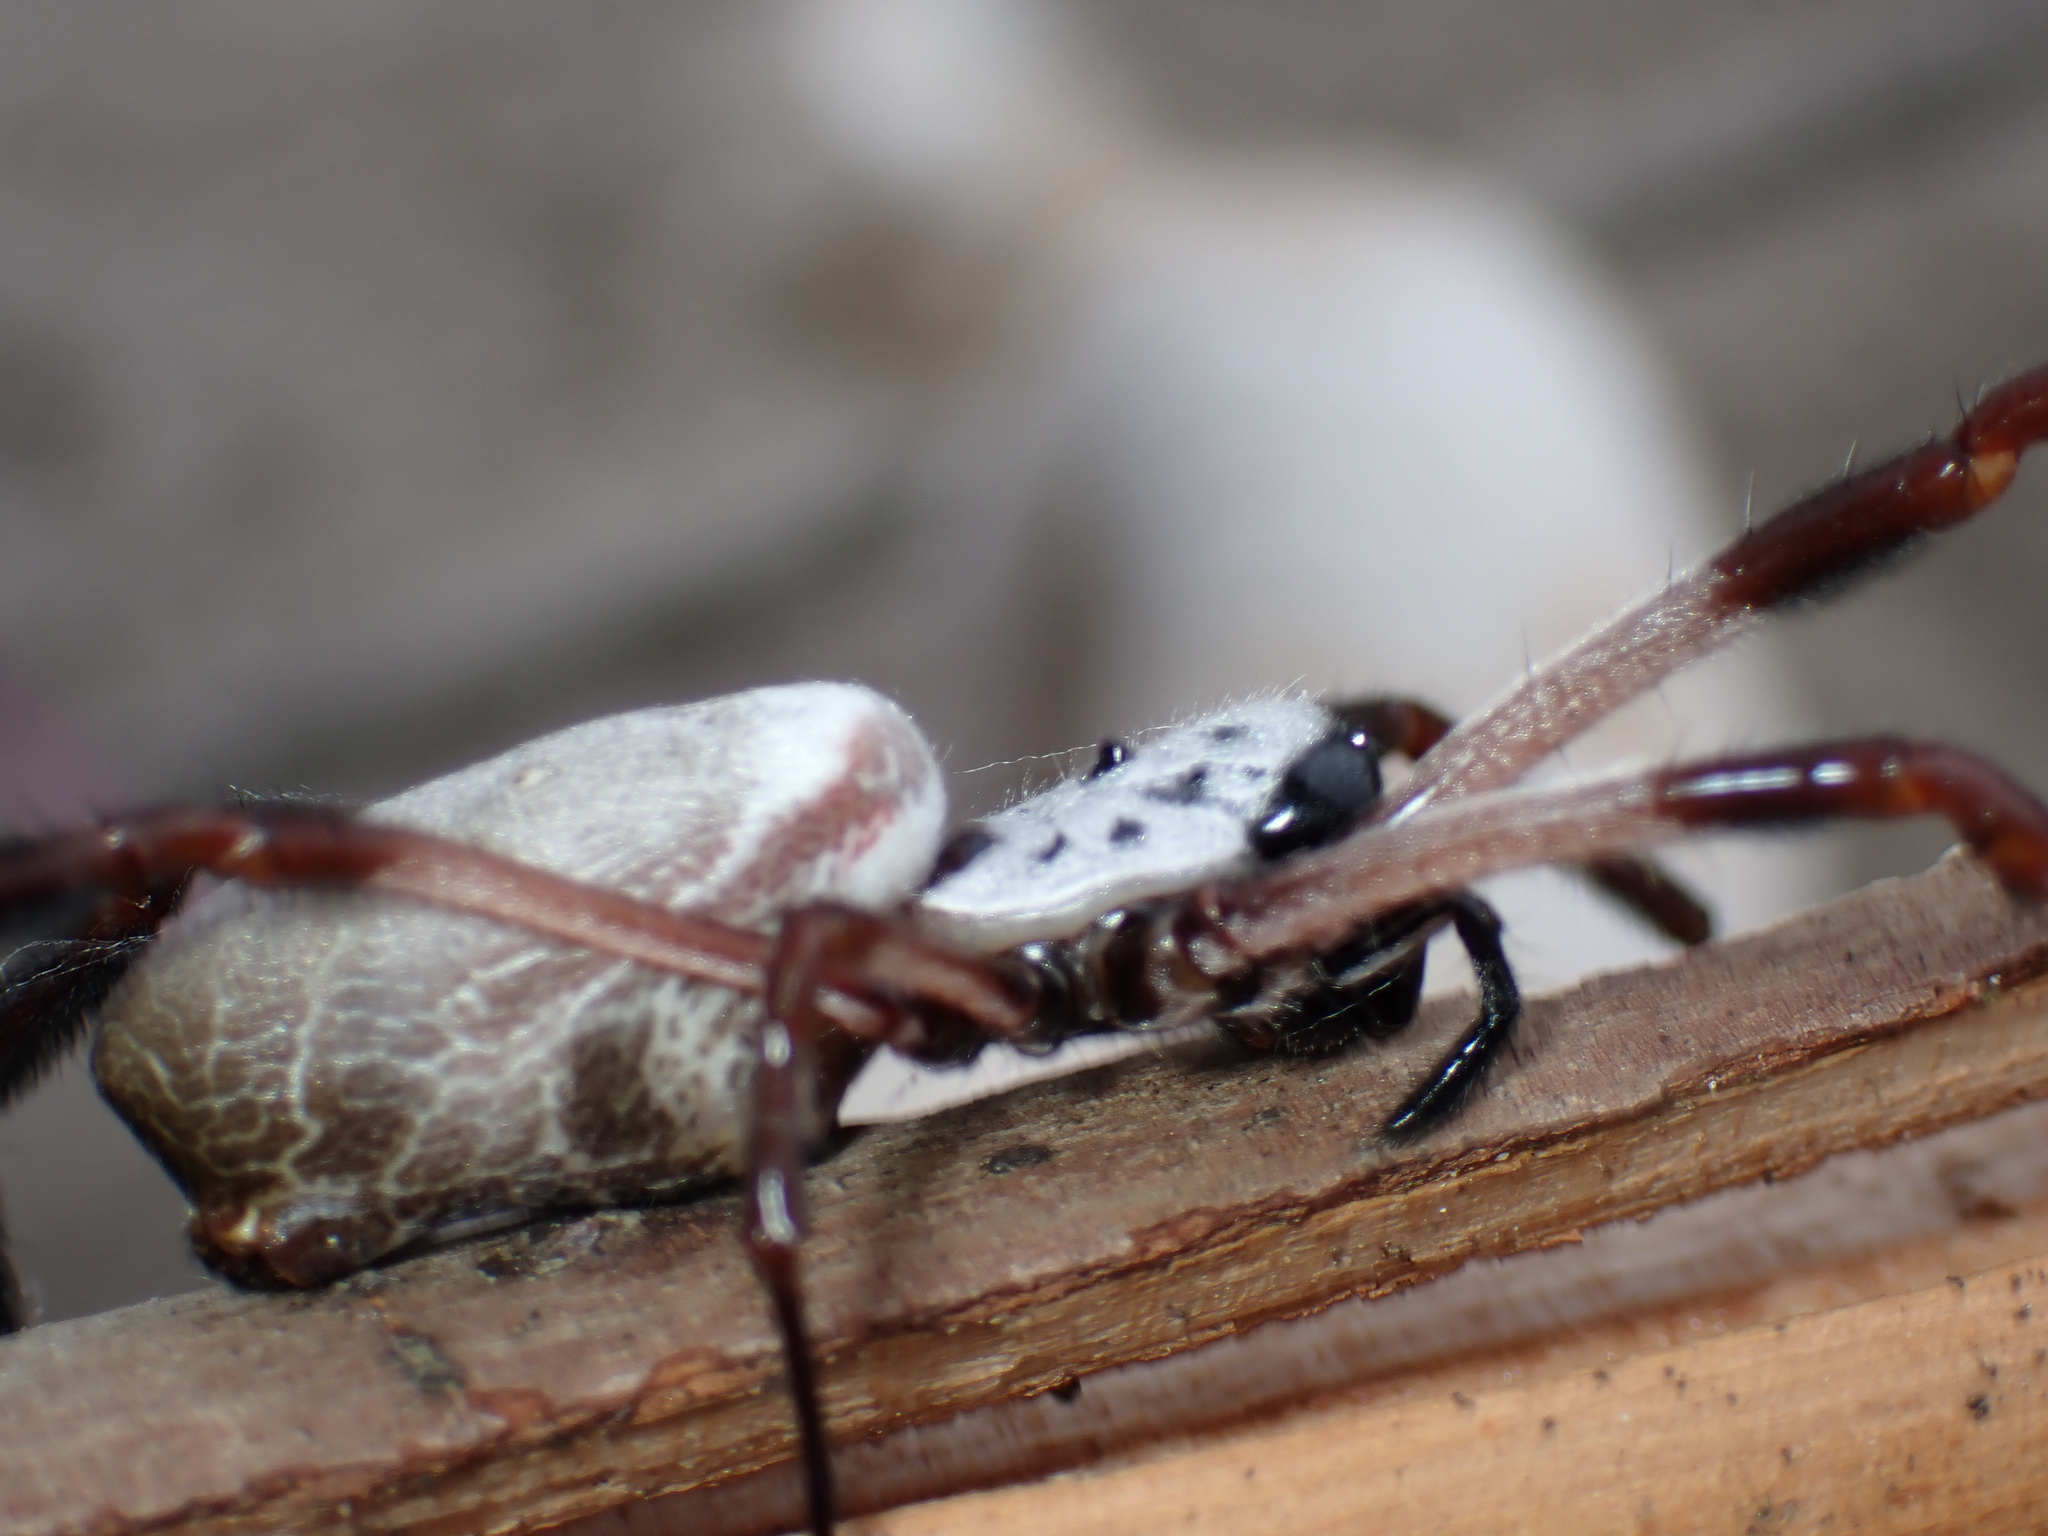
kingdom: Animalia
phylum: Arthropoda
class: Arachnida
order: Araneae
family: Araneidae
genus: Trichonephila
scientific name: Trichonephila edulis
